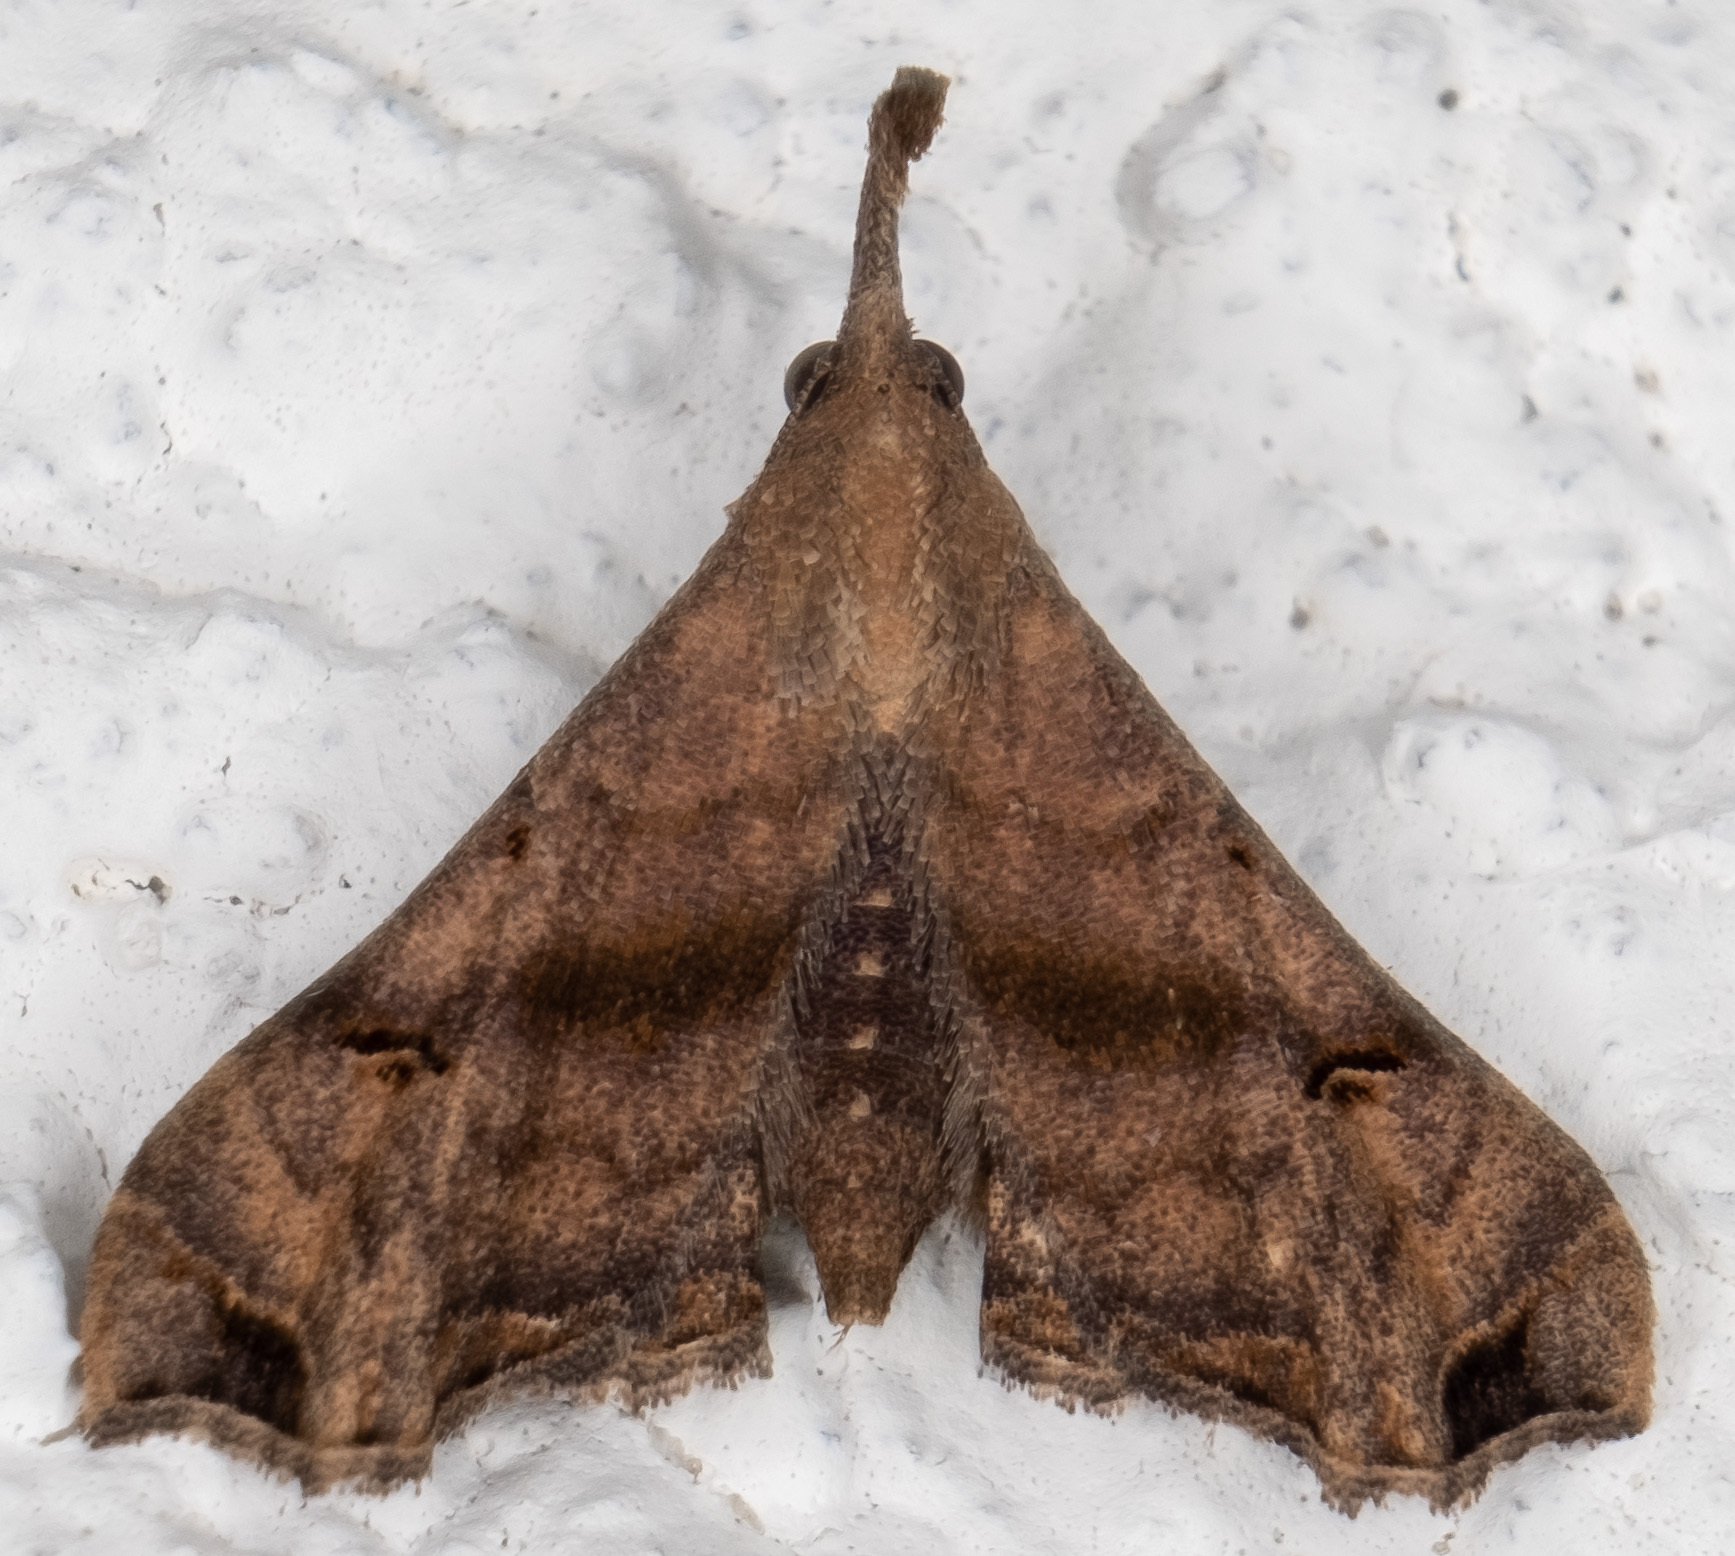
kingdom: Animalia
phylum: Arthropoda
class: Insecta
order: Lepidoptera
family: Erebidae
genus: Palthis
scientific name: Palthis asopialis
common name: Faint-spotted palthis moth
